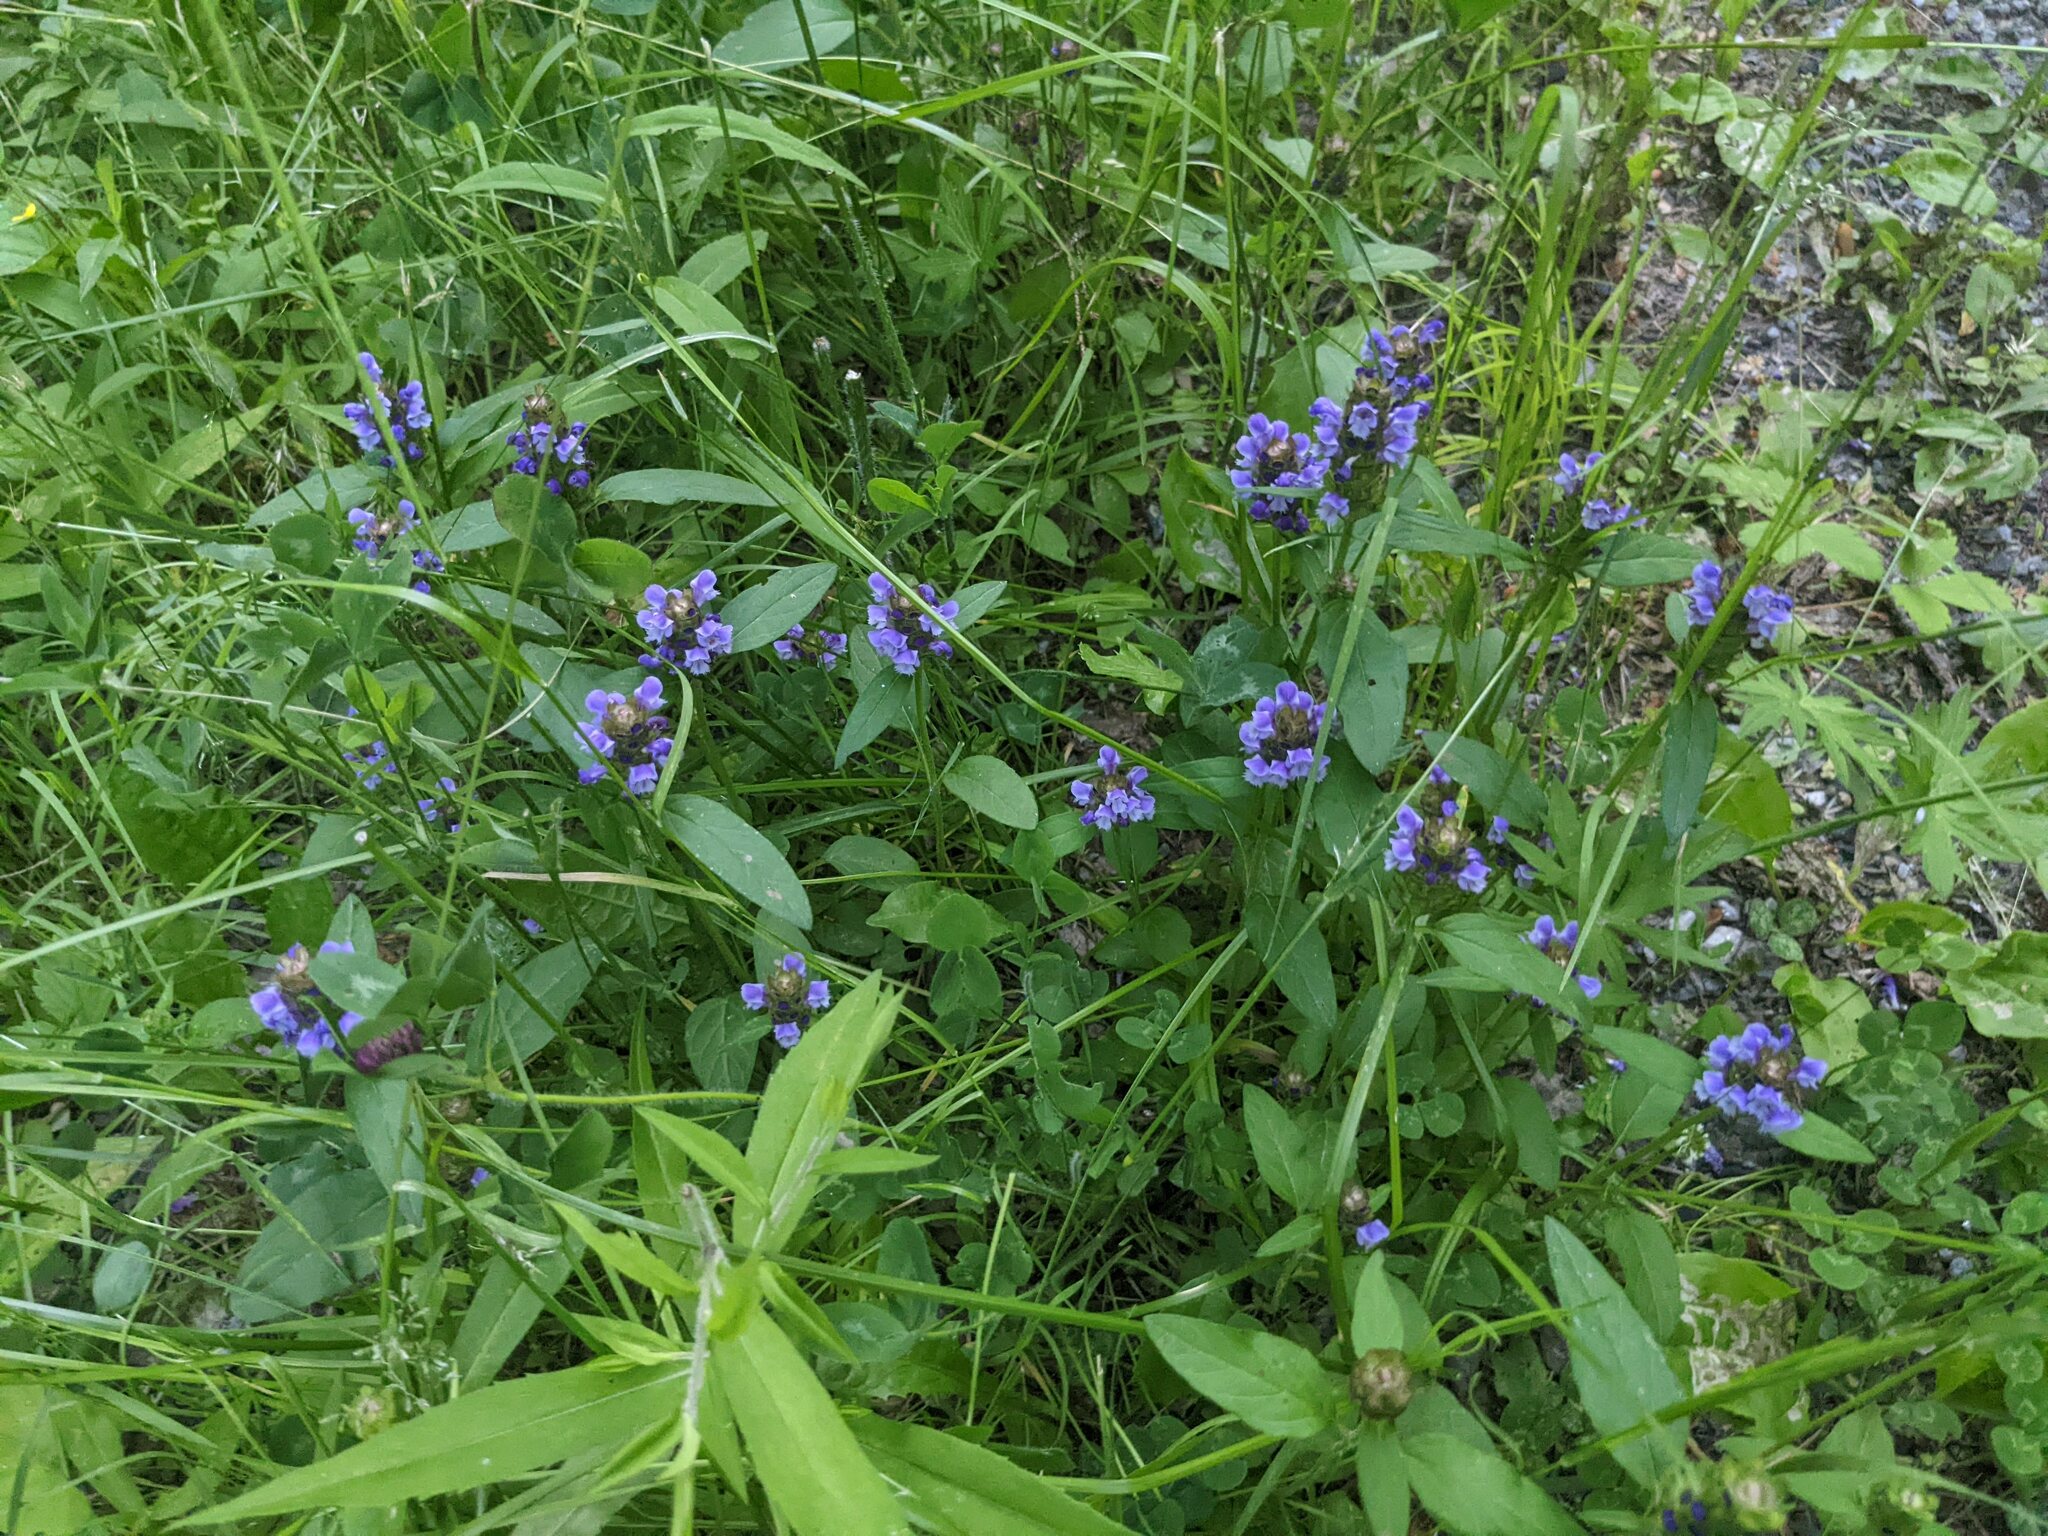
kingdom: Plantae
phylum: Tracheophyta
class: Magnoliopsida
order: Lamiales
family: Lamiaceae
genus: Prunella
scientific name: Prunella vulgaris
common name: Heal-all
